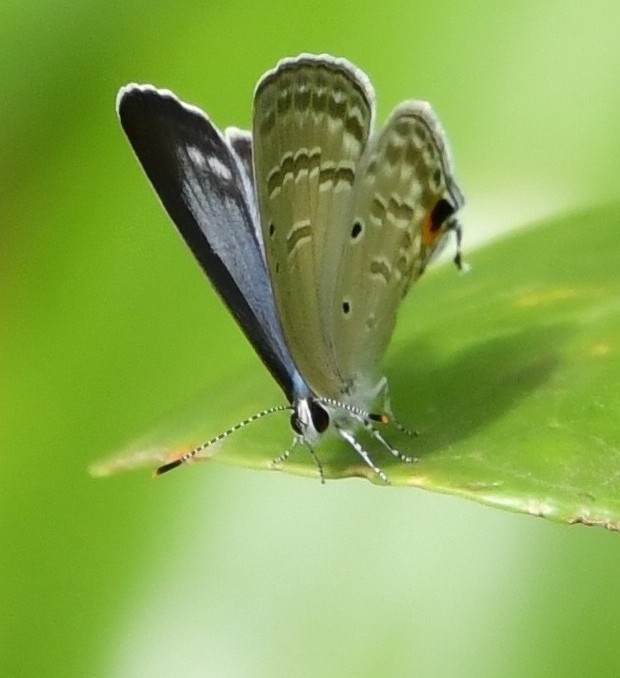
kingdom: Animalia
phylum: Arthropoda
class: Insecta
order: Lepidoptera
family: Lycaenidae
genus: Catochrysops
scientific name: Catochrysops strabo
